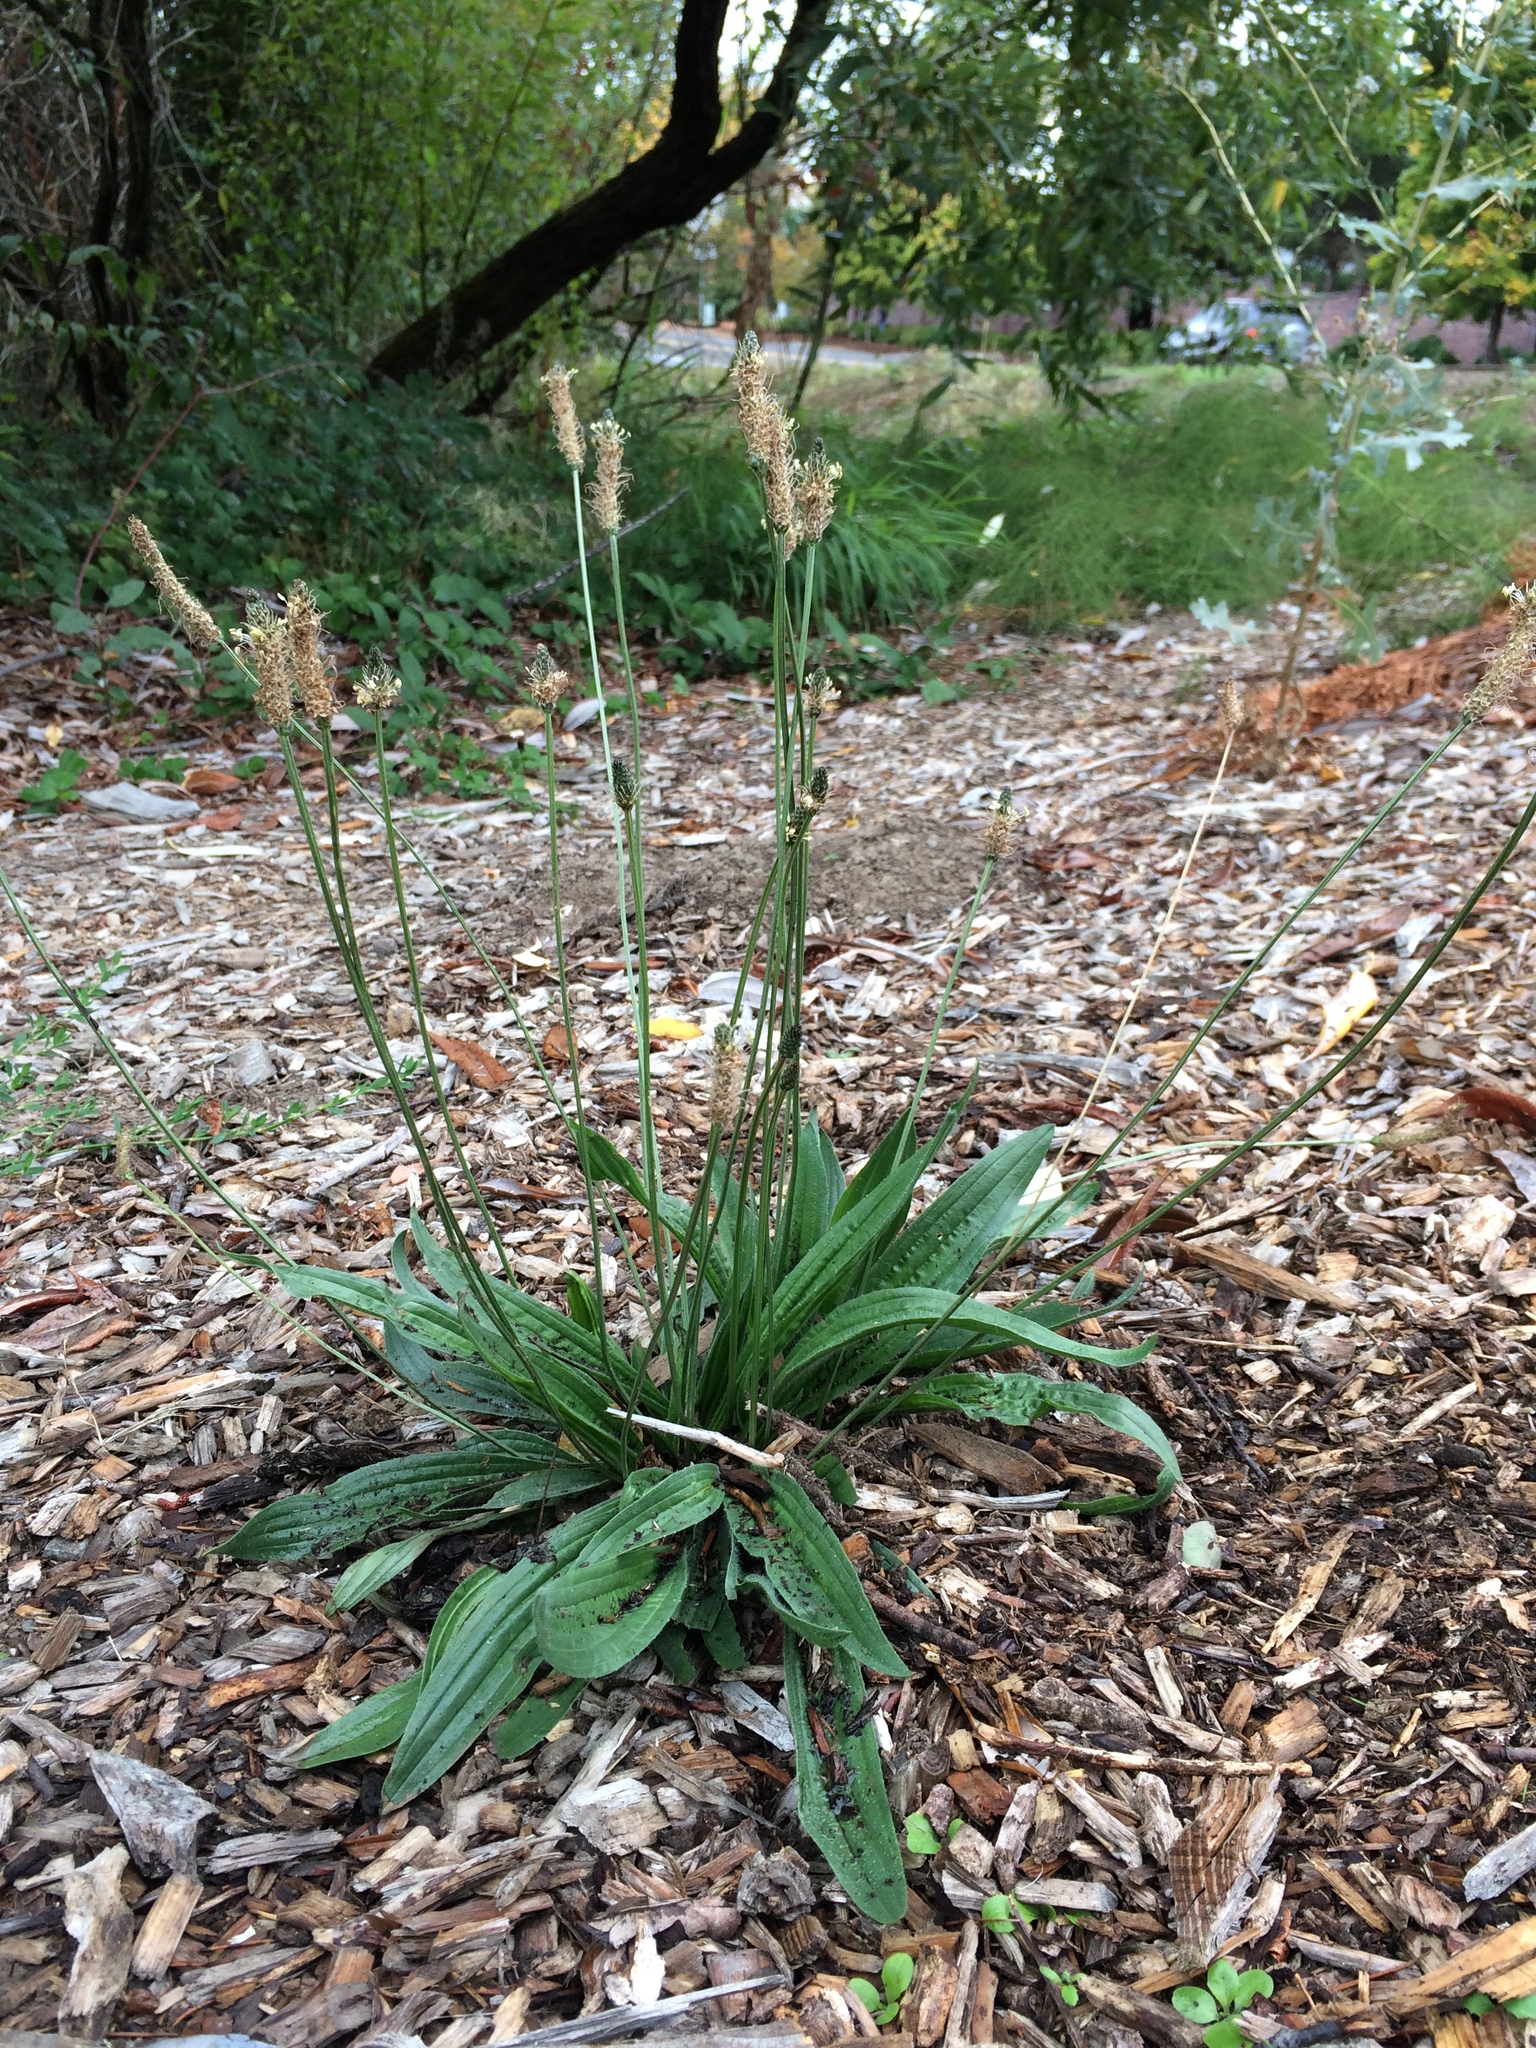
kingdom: Plantae
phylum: Tracheophyta
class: Magnoliopsida
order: Lamiales
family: Plantaginaceae
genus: Plantago
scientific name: Plantago lanceolata
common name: Ribwort plantain
